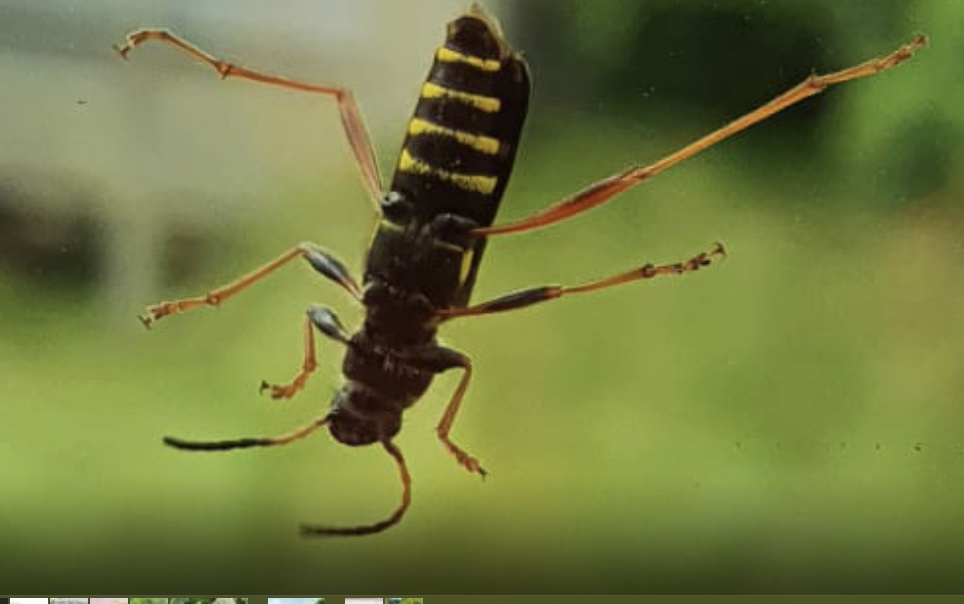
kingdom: Animalia
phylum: Arthropoda
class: Insecta
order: Coleoptera
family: Cerambycidae
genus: Clytus
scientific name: Clytus arietis
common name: Wasp beetle
